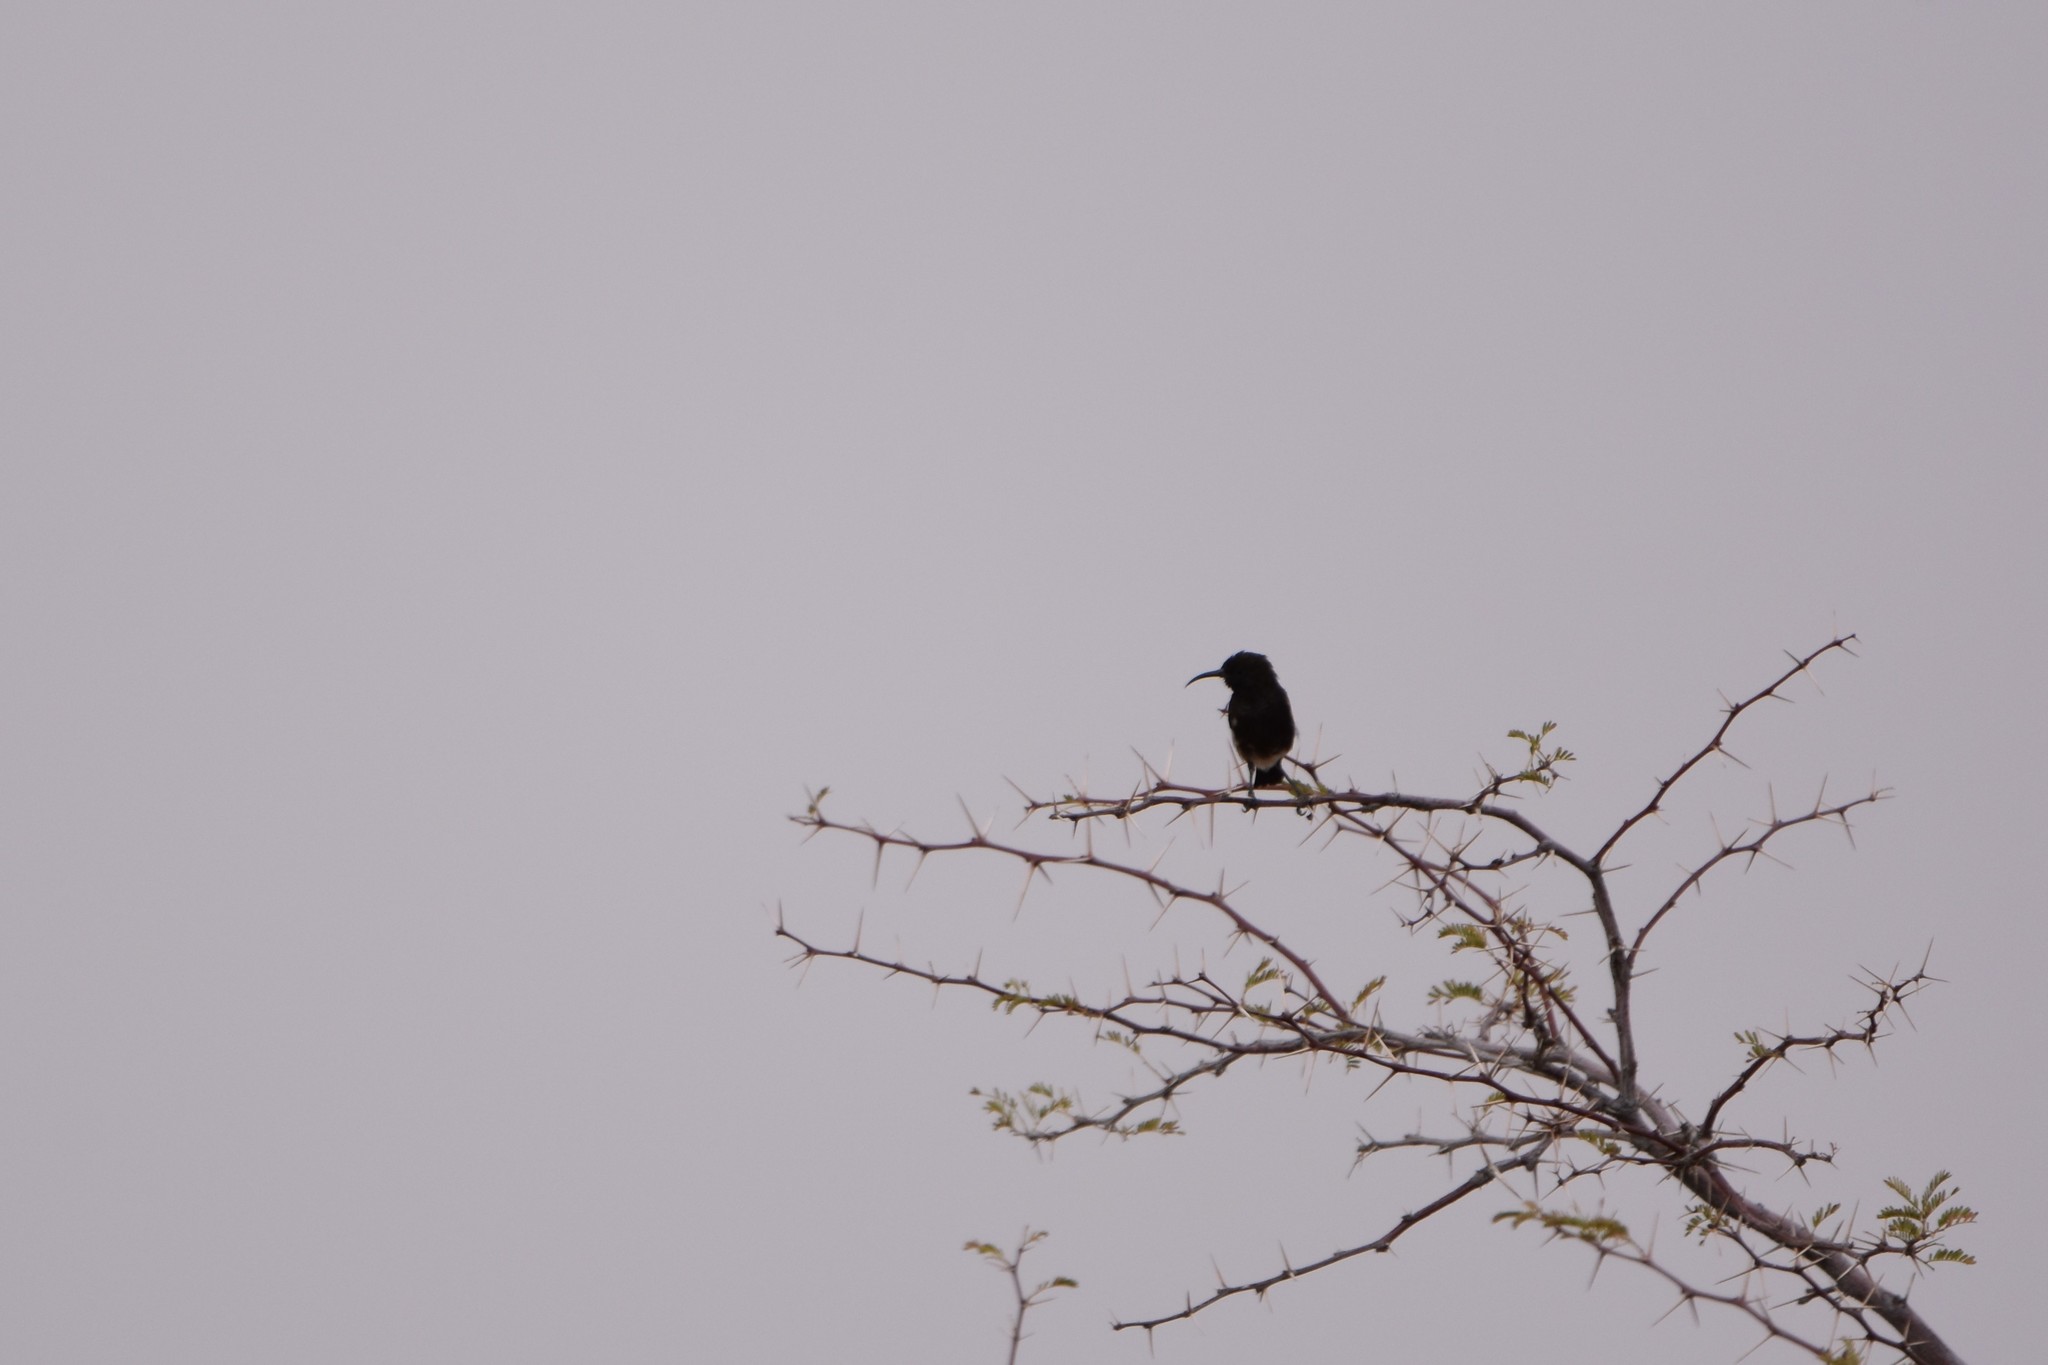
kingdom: Animalia
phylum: Chordata
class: Aves
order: Passeriformes
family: Nectariniidae
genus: Cinnyris
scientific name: Cinnyris fuscus
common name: Dusky sunbird
